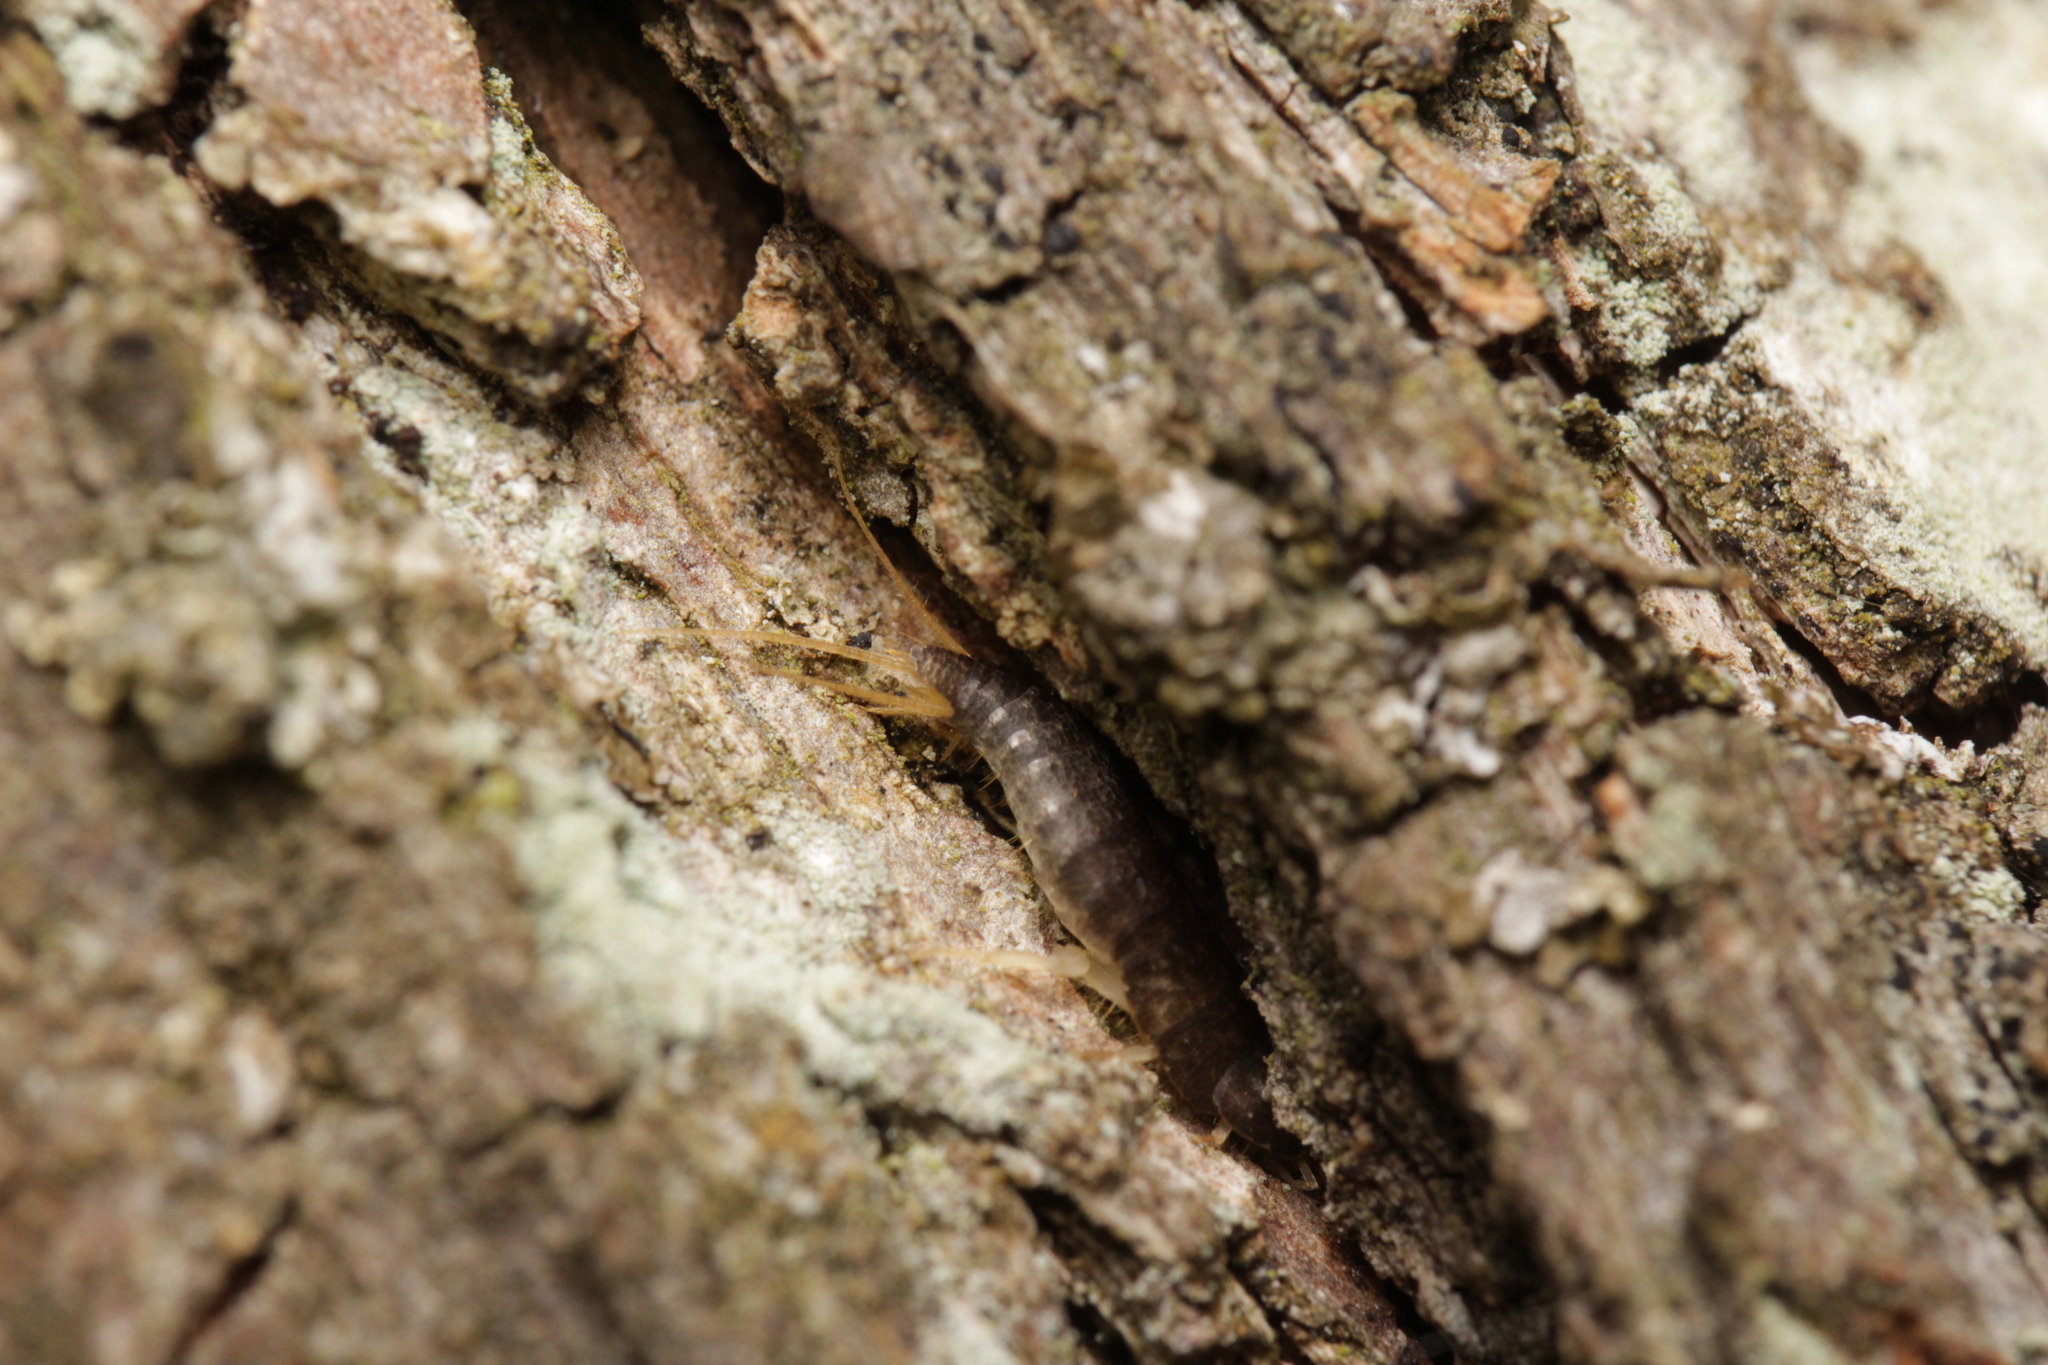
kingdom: Animalia
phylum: Arthropoda
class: Insecta
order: Zygentoma
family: Lepismatidae
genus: Lepisma
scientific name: Lepisma saccharinum
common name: Silverfish
